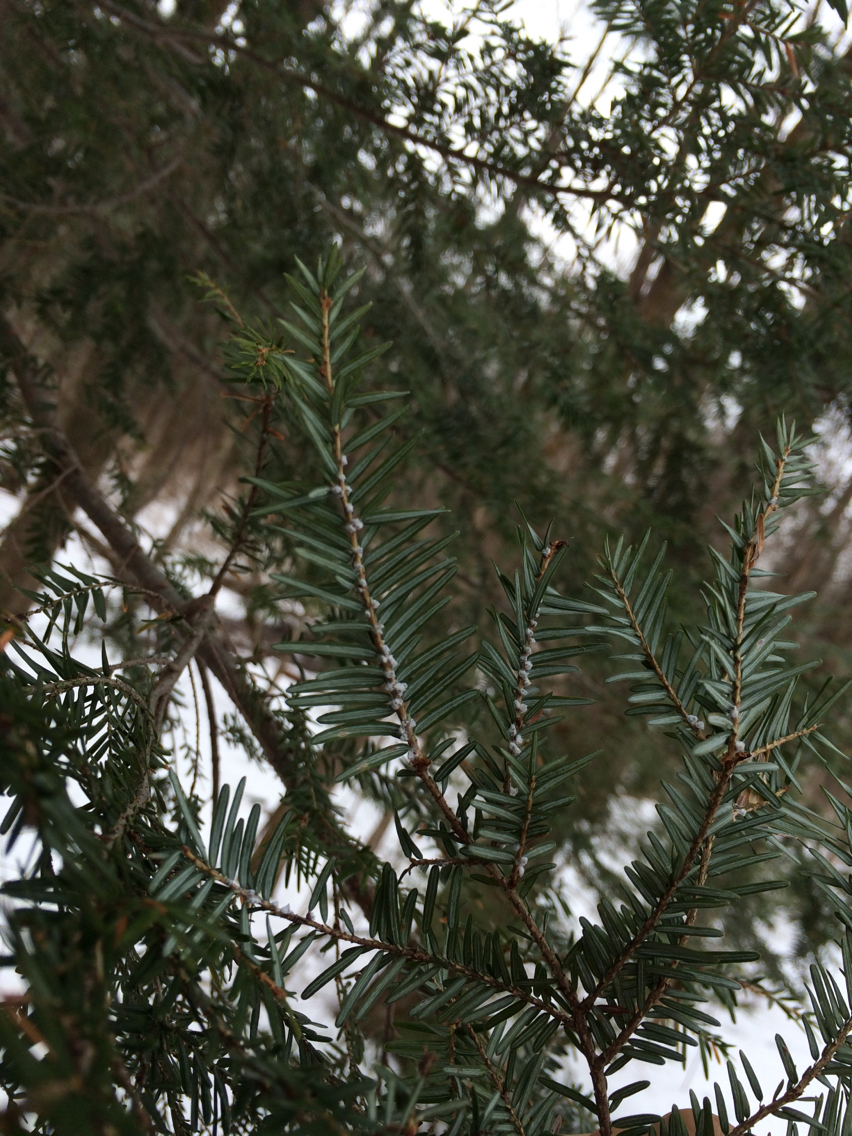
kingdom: Animalia
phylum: Arthropoda
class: Insecta
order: Hemiptera
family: Adelgidae
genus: Adelges
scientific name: Adelges tsugae
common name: Hemlock woolly adelgid
